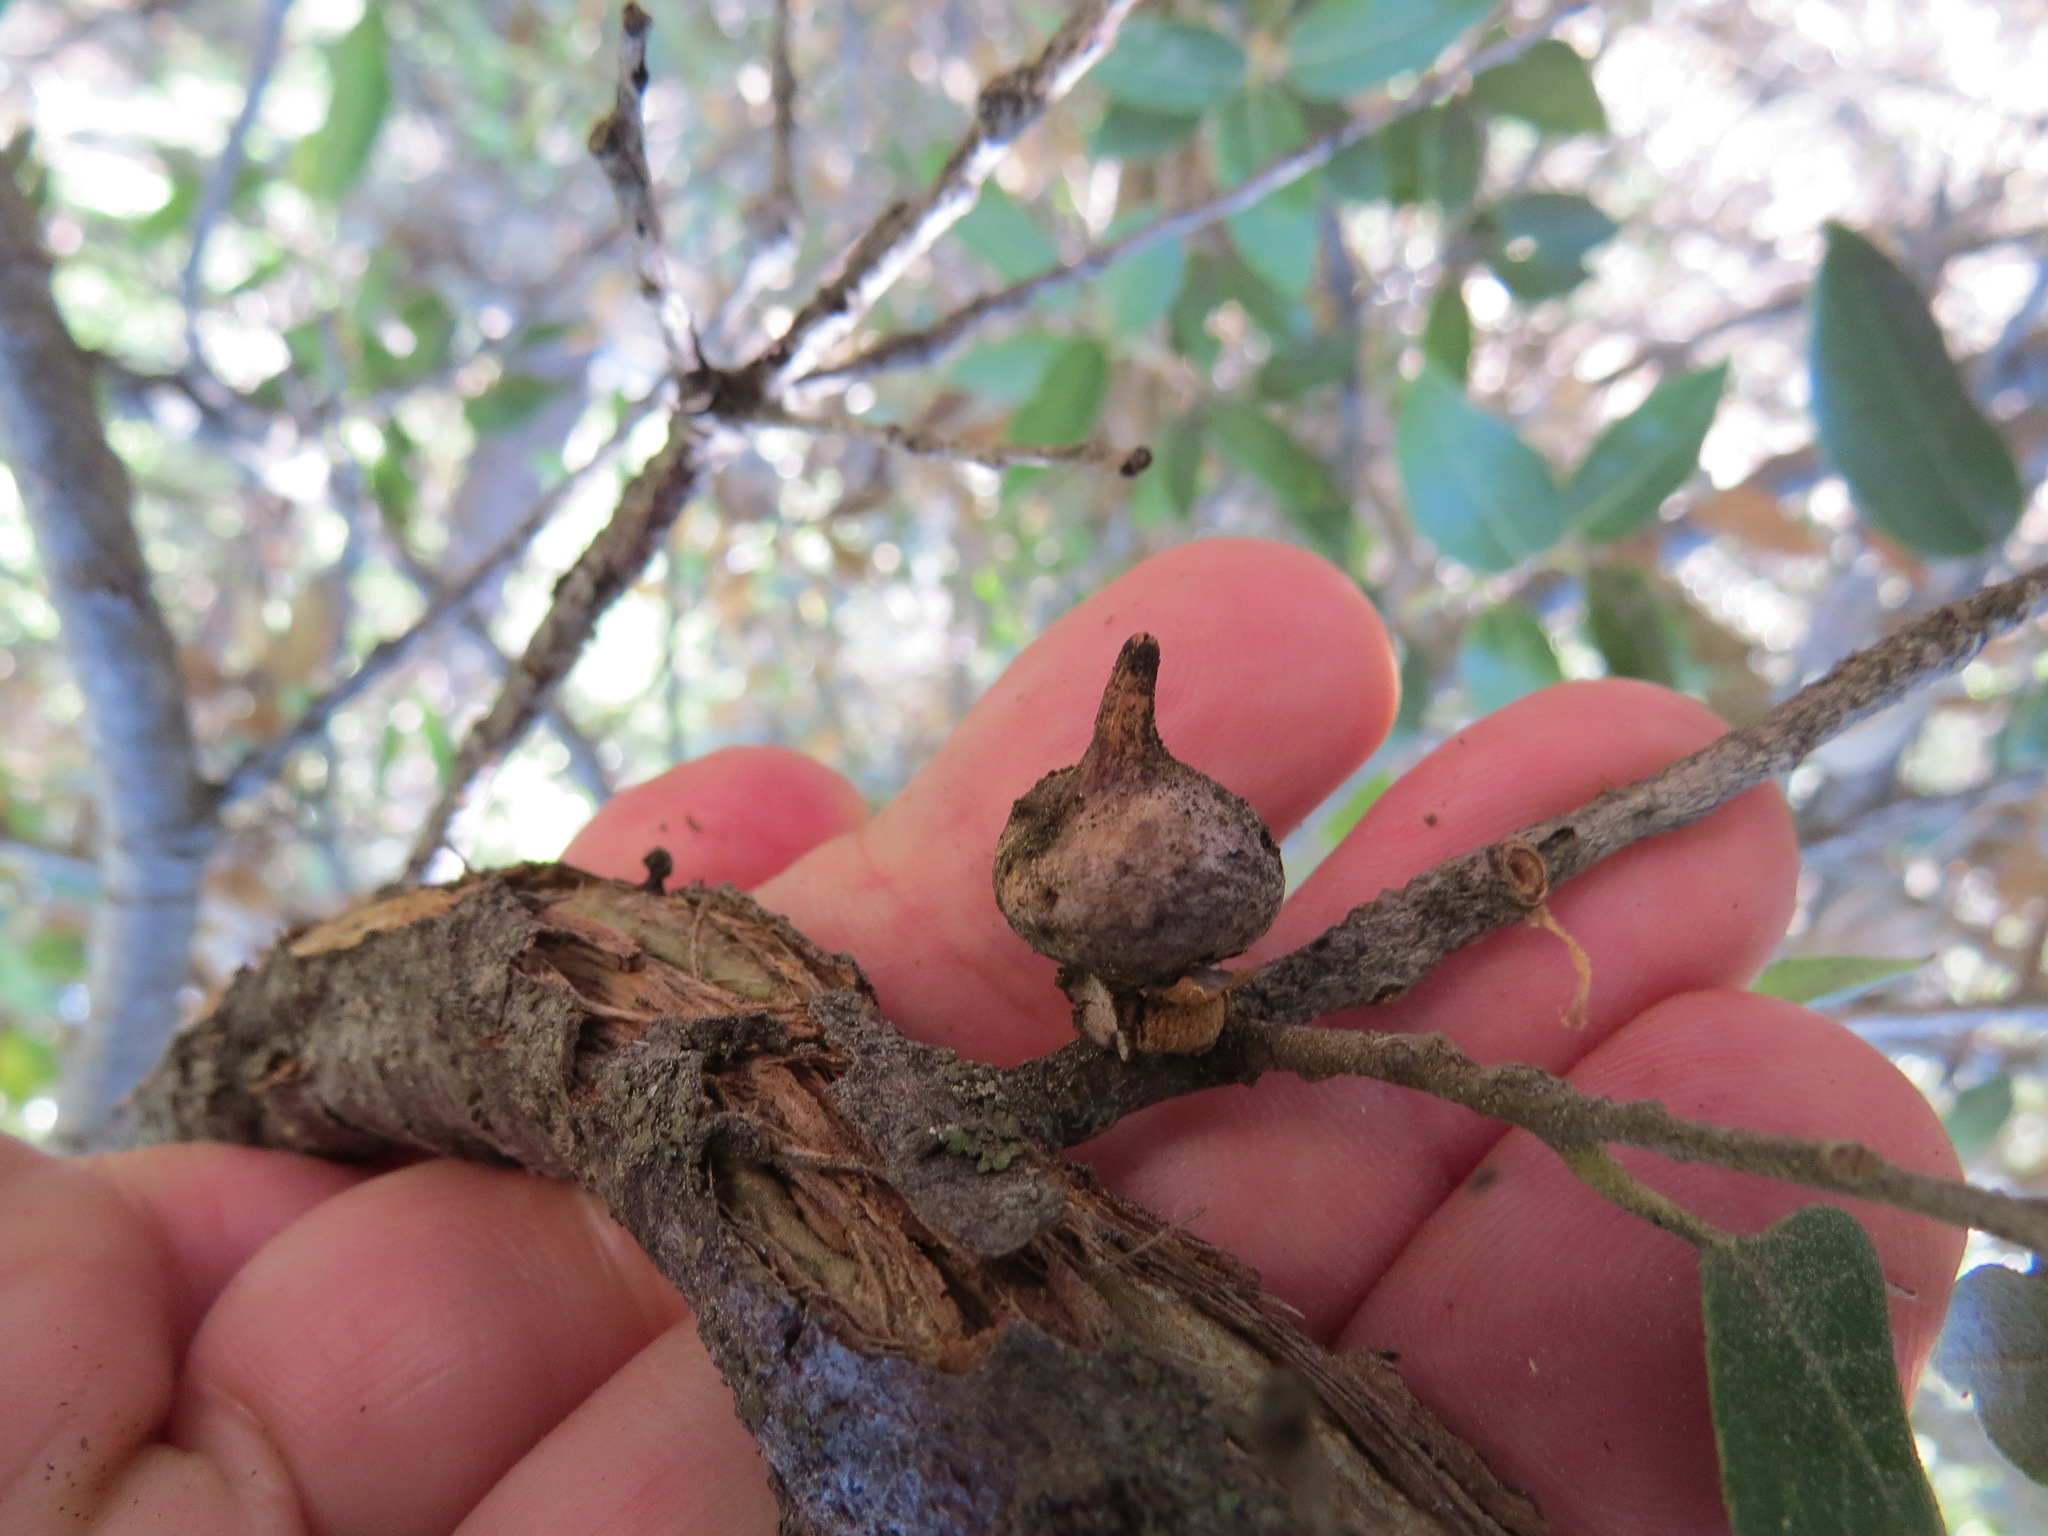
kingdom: Animalia
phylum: Arthropoda
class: Insecta
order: Hymenoptera
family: Cynipidae
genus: Heteroecus
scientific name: Heteroecus
